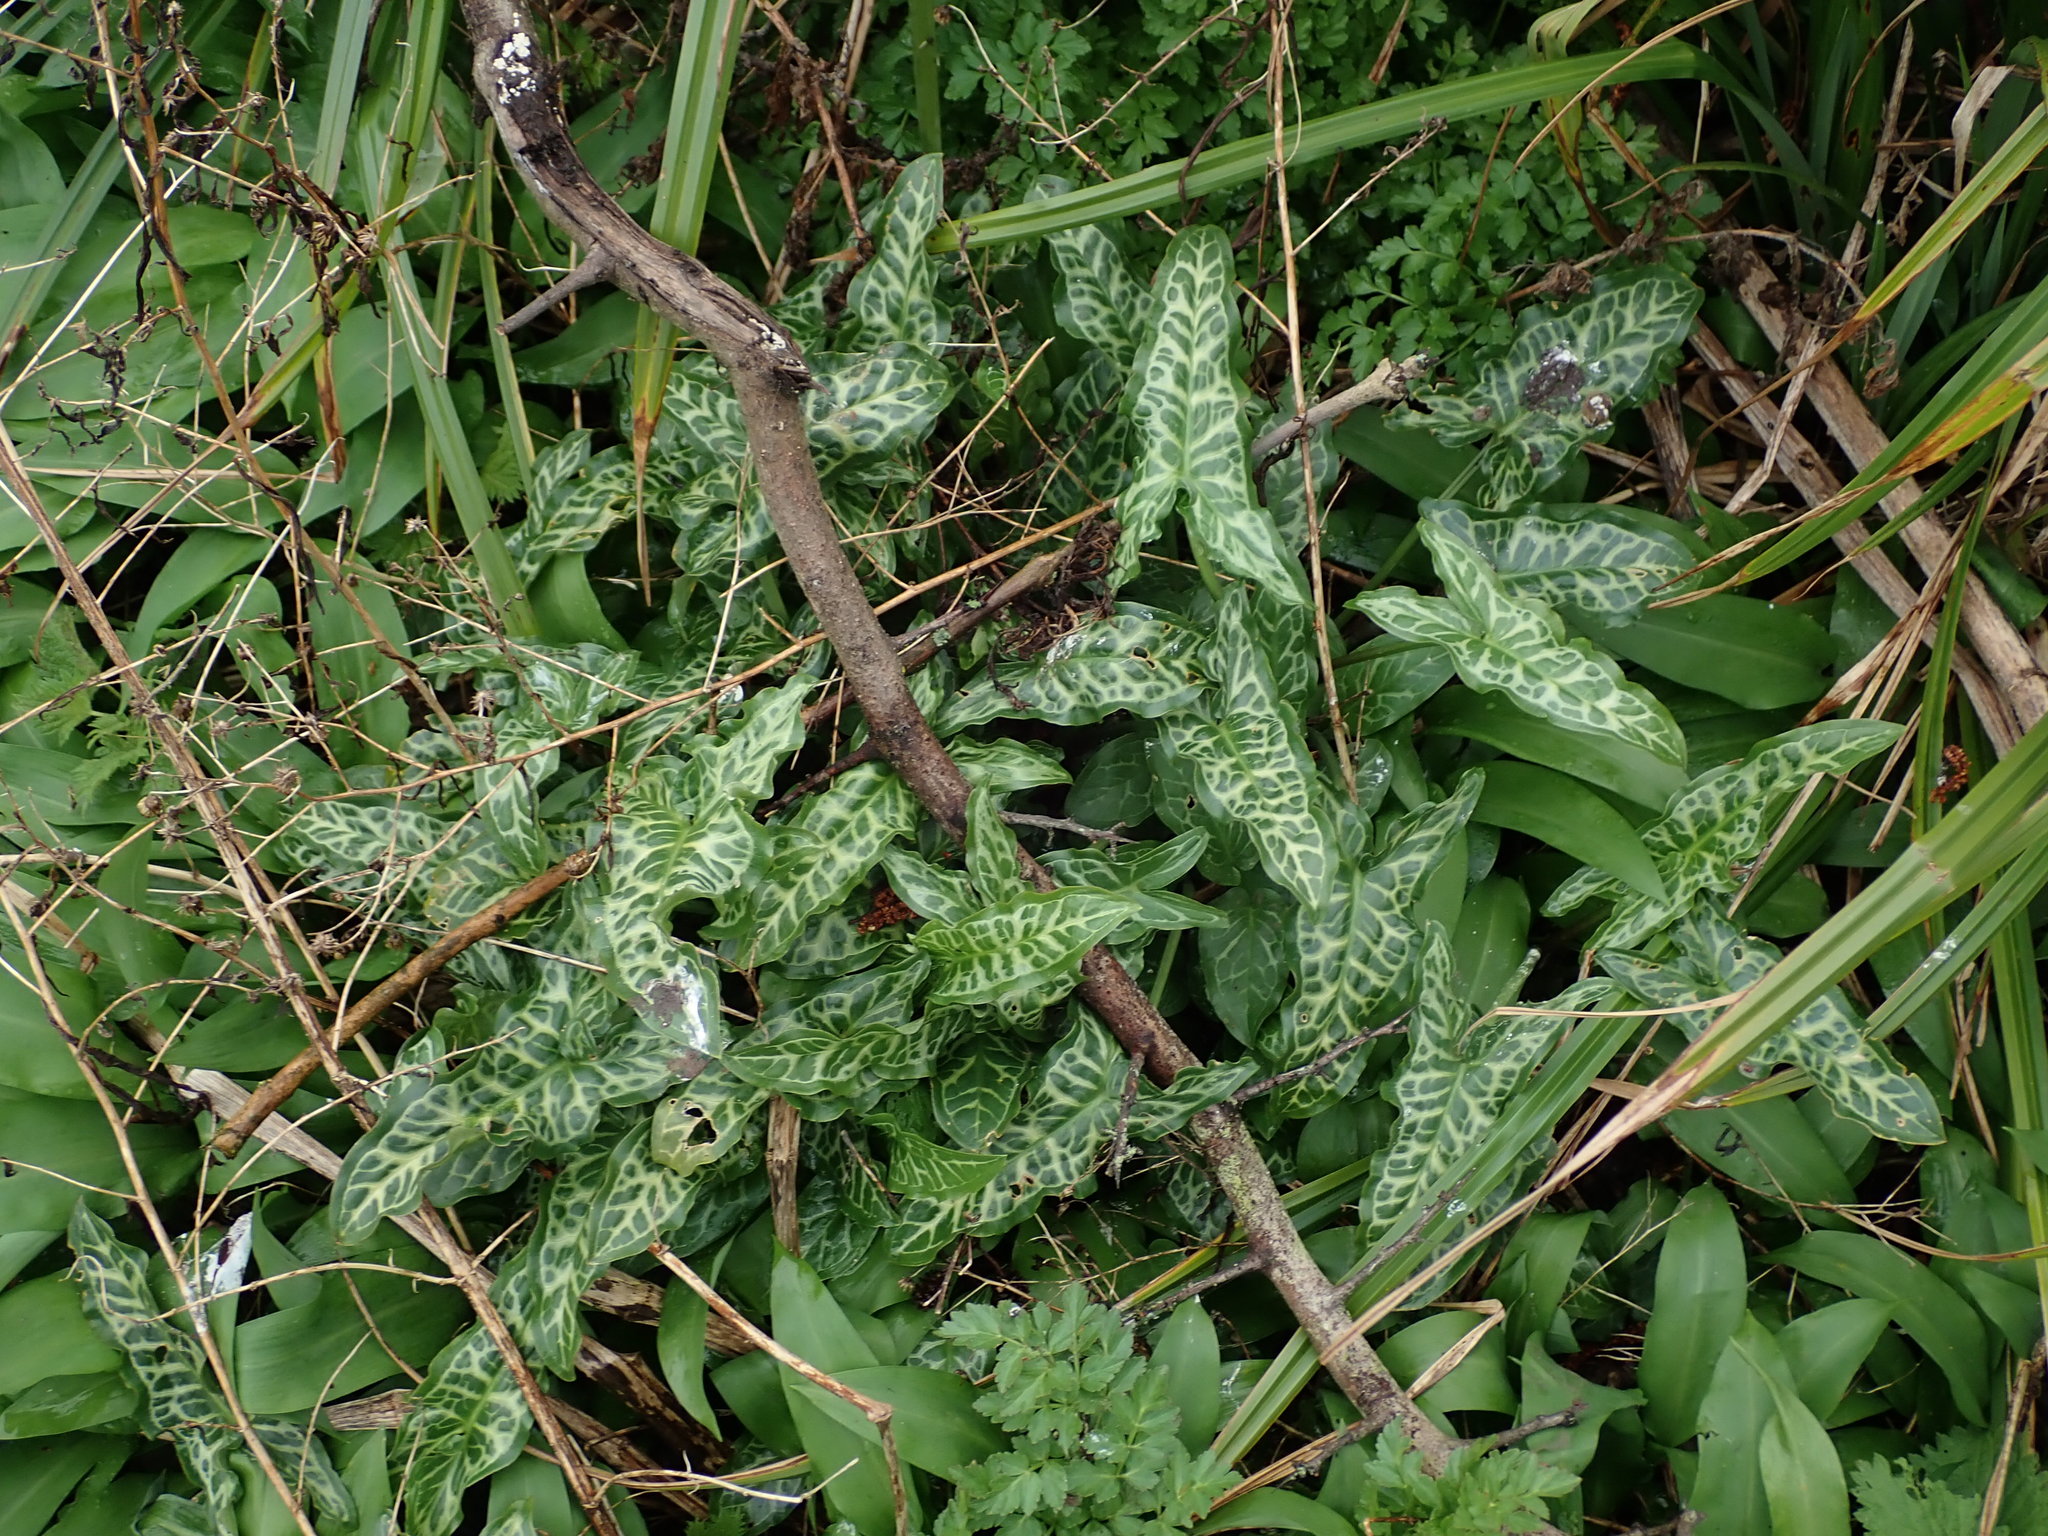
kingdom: Plantae
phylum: Tracheophyta
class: Liliopsida
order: Alismatales
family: Araceae
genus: Arum
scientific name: Arum italicum
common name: Italian lords-and-ladies
